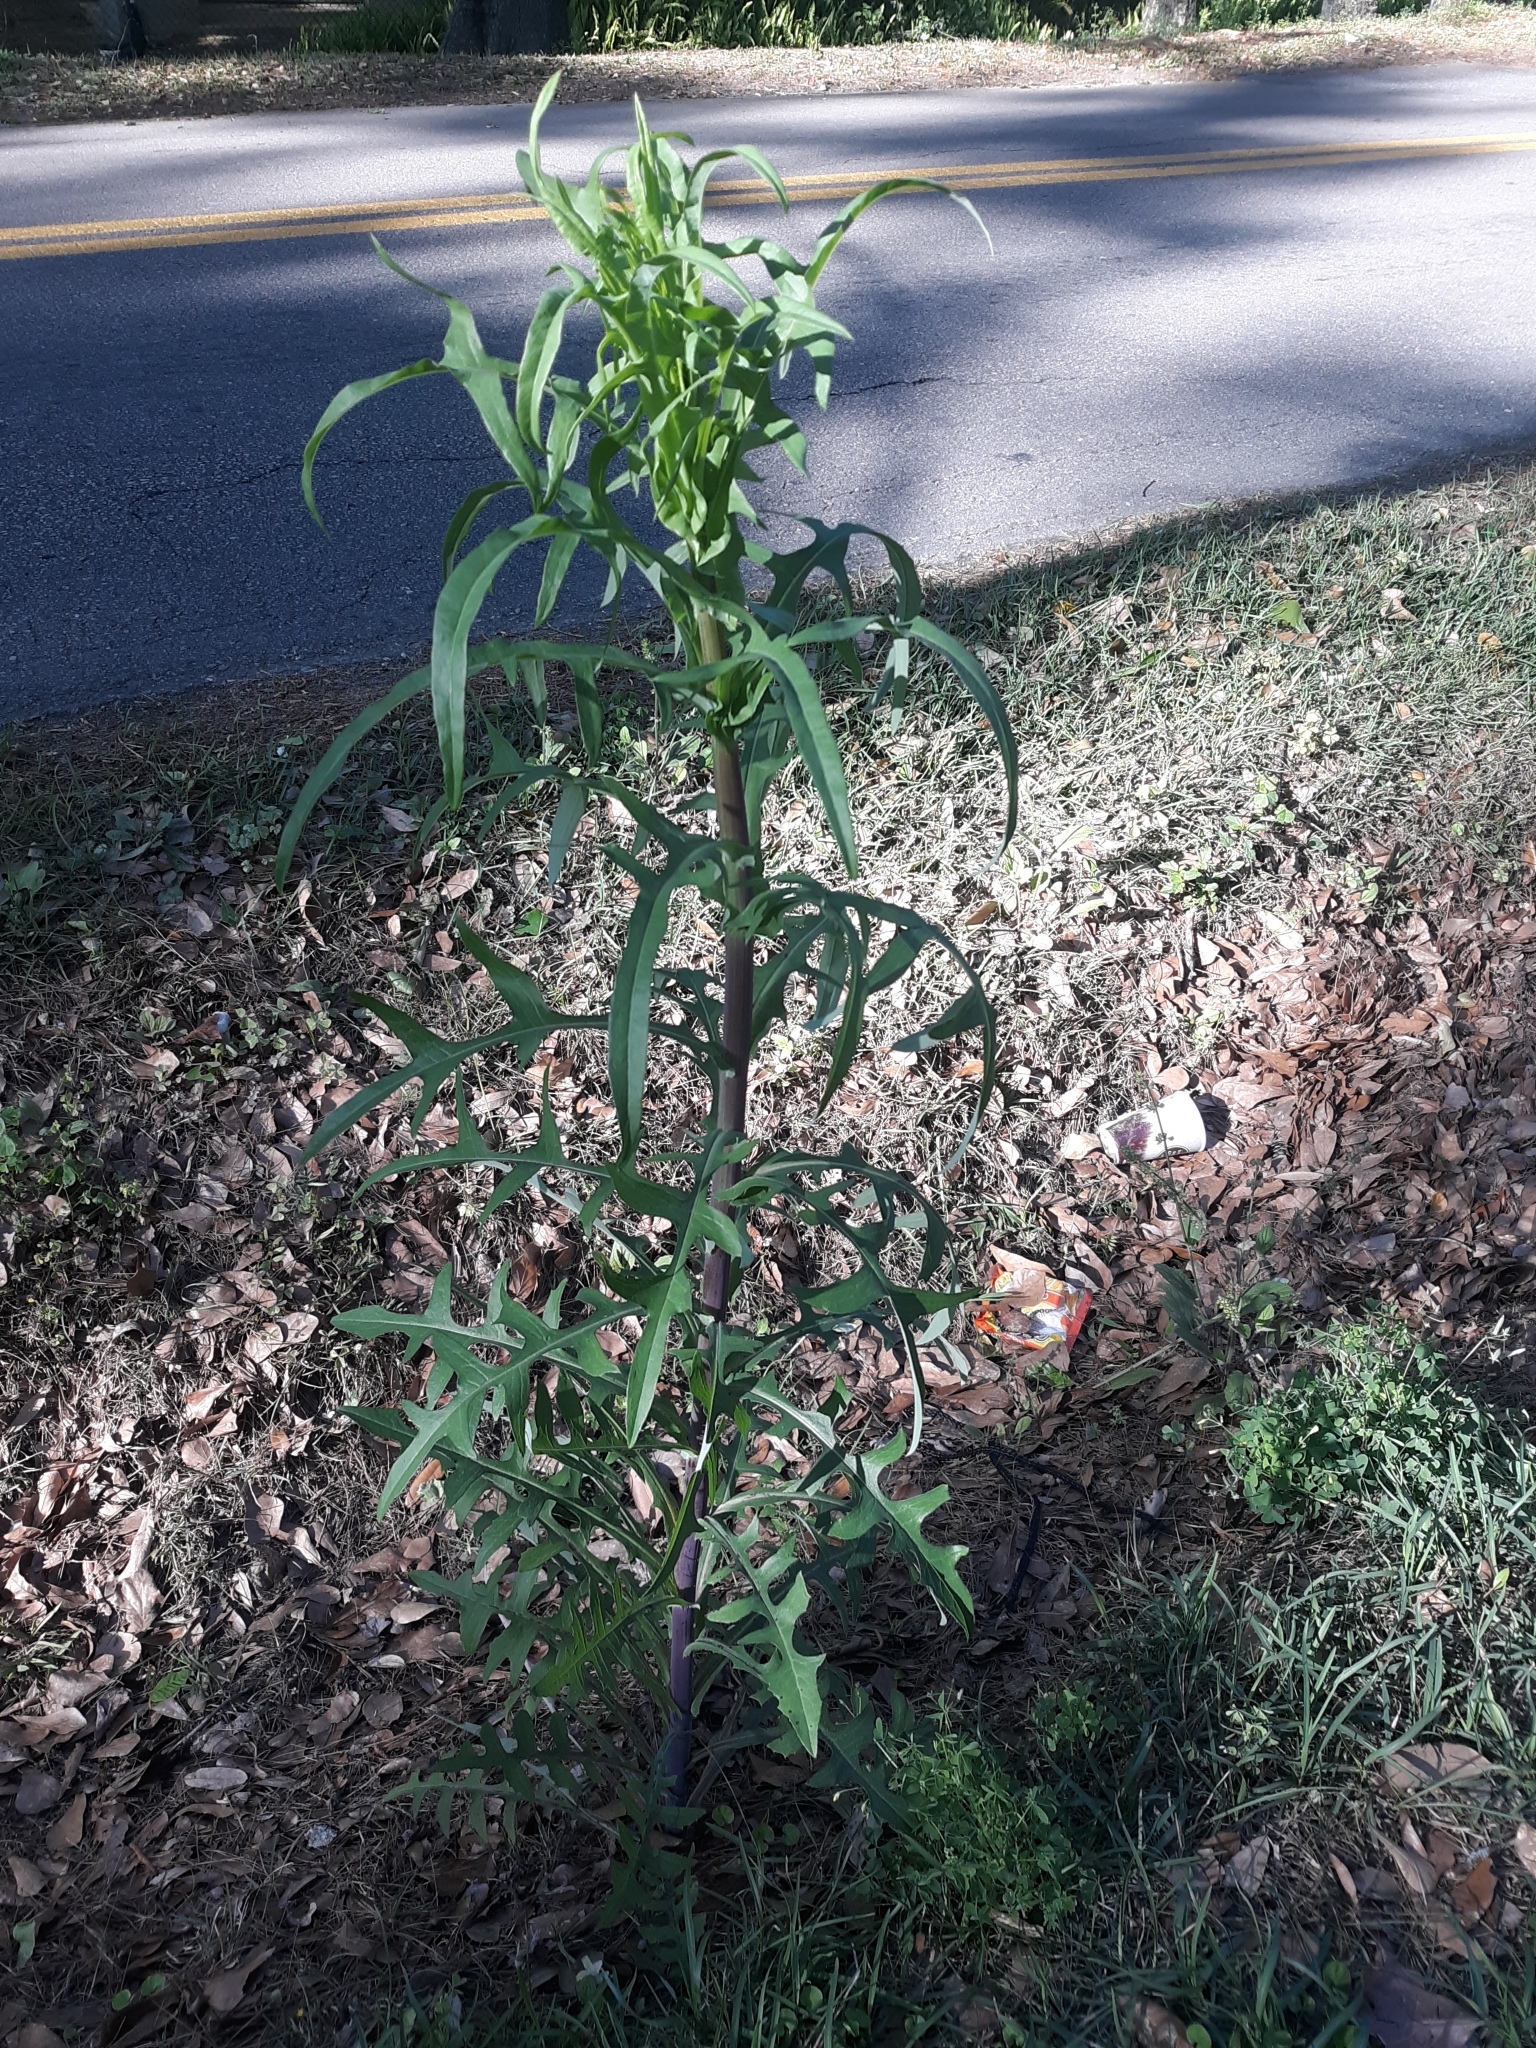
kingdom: Plantae
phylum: Tracheophyta
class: Magnoliopsida
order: Asterales
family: Asteraceae
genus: Lactuca
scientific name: Lactuca canadensis
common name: Canada lettuce
